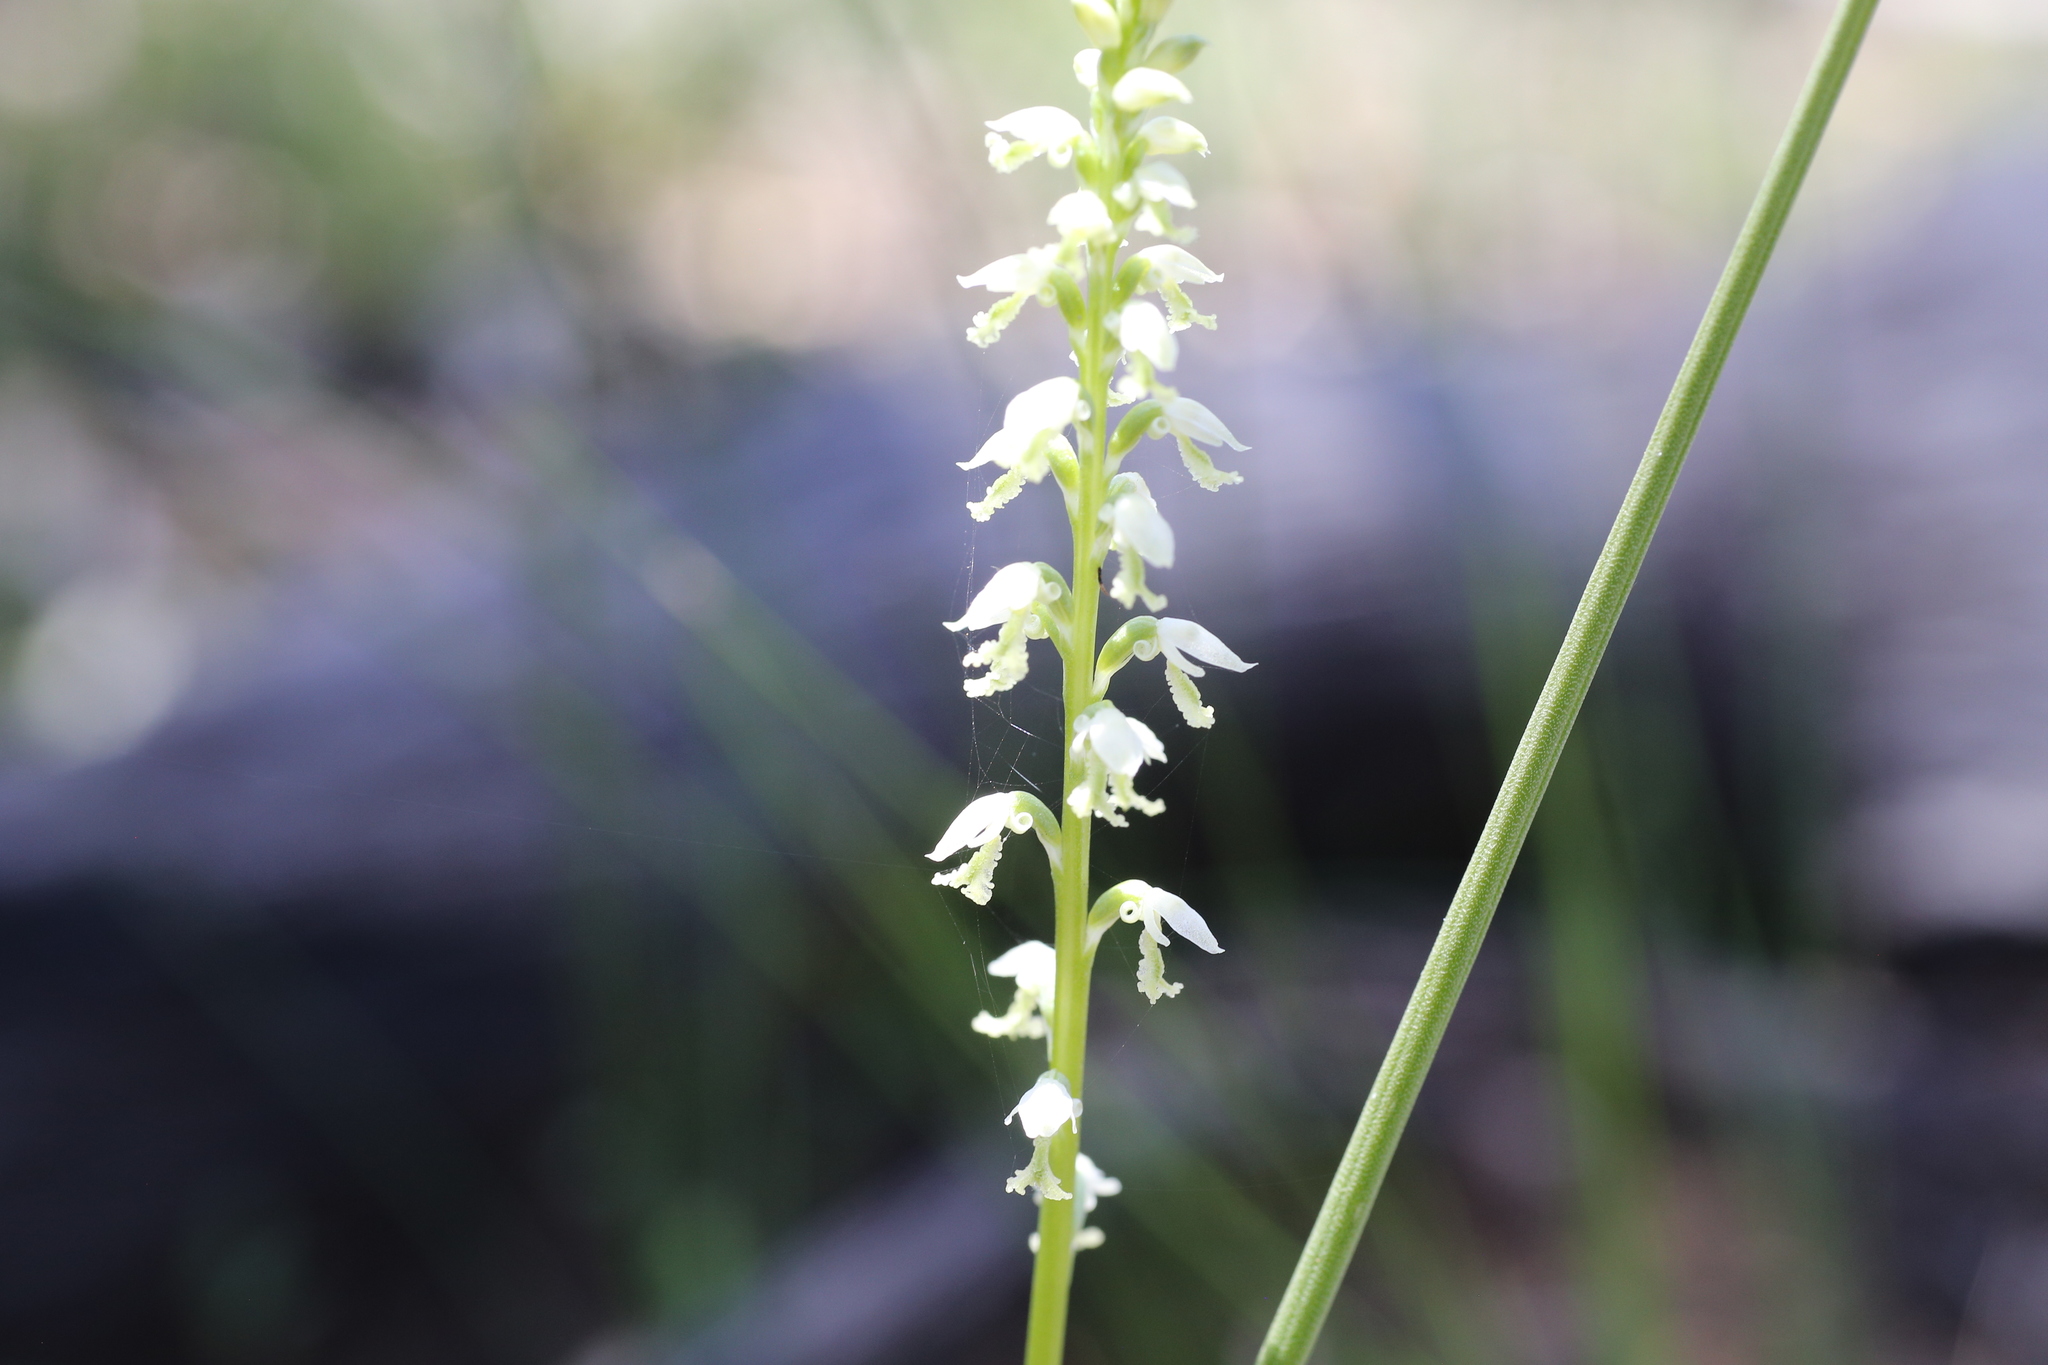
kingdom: Plantae
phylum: Tracheophyta
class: Liliopsida
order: Asparagales
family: Orchidaceae
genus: Microtis
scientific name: Microtis alba
